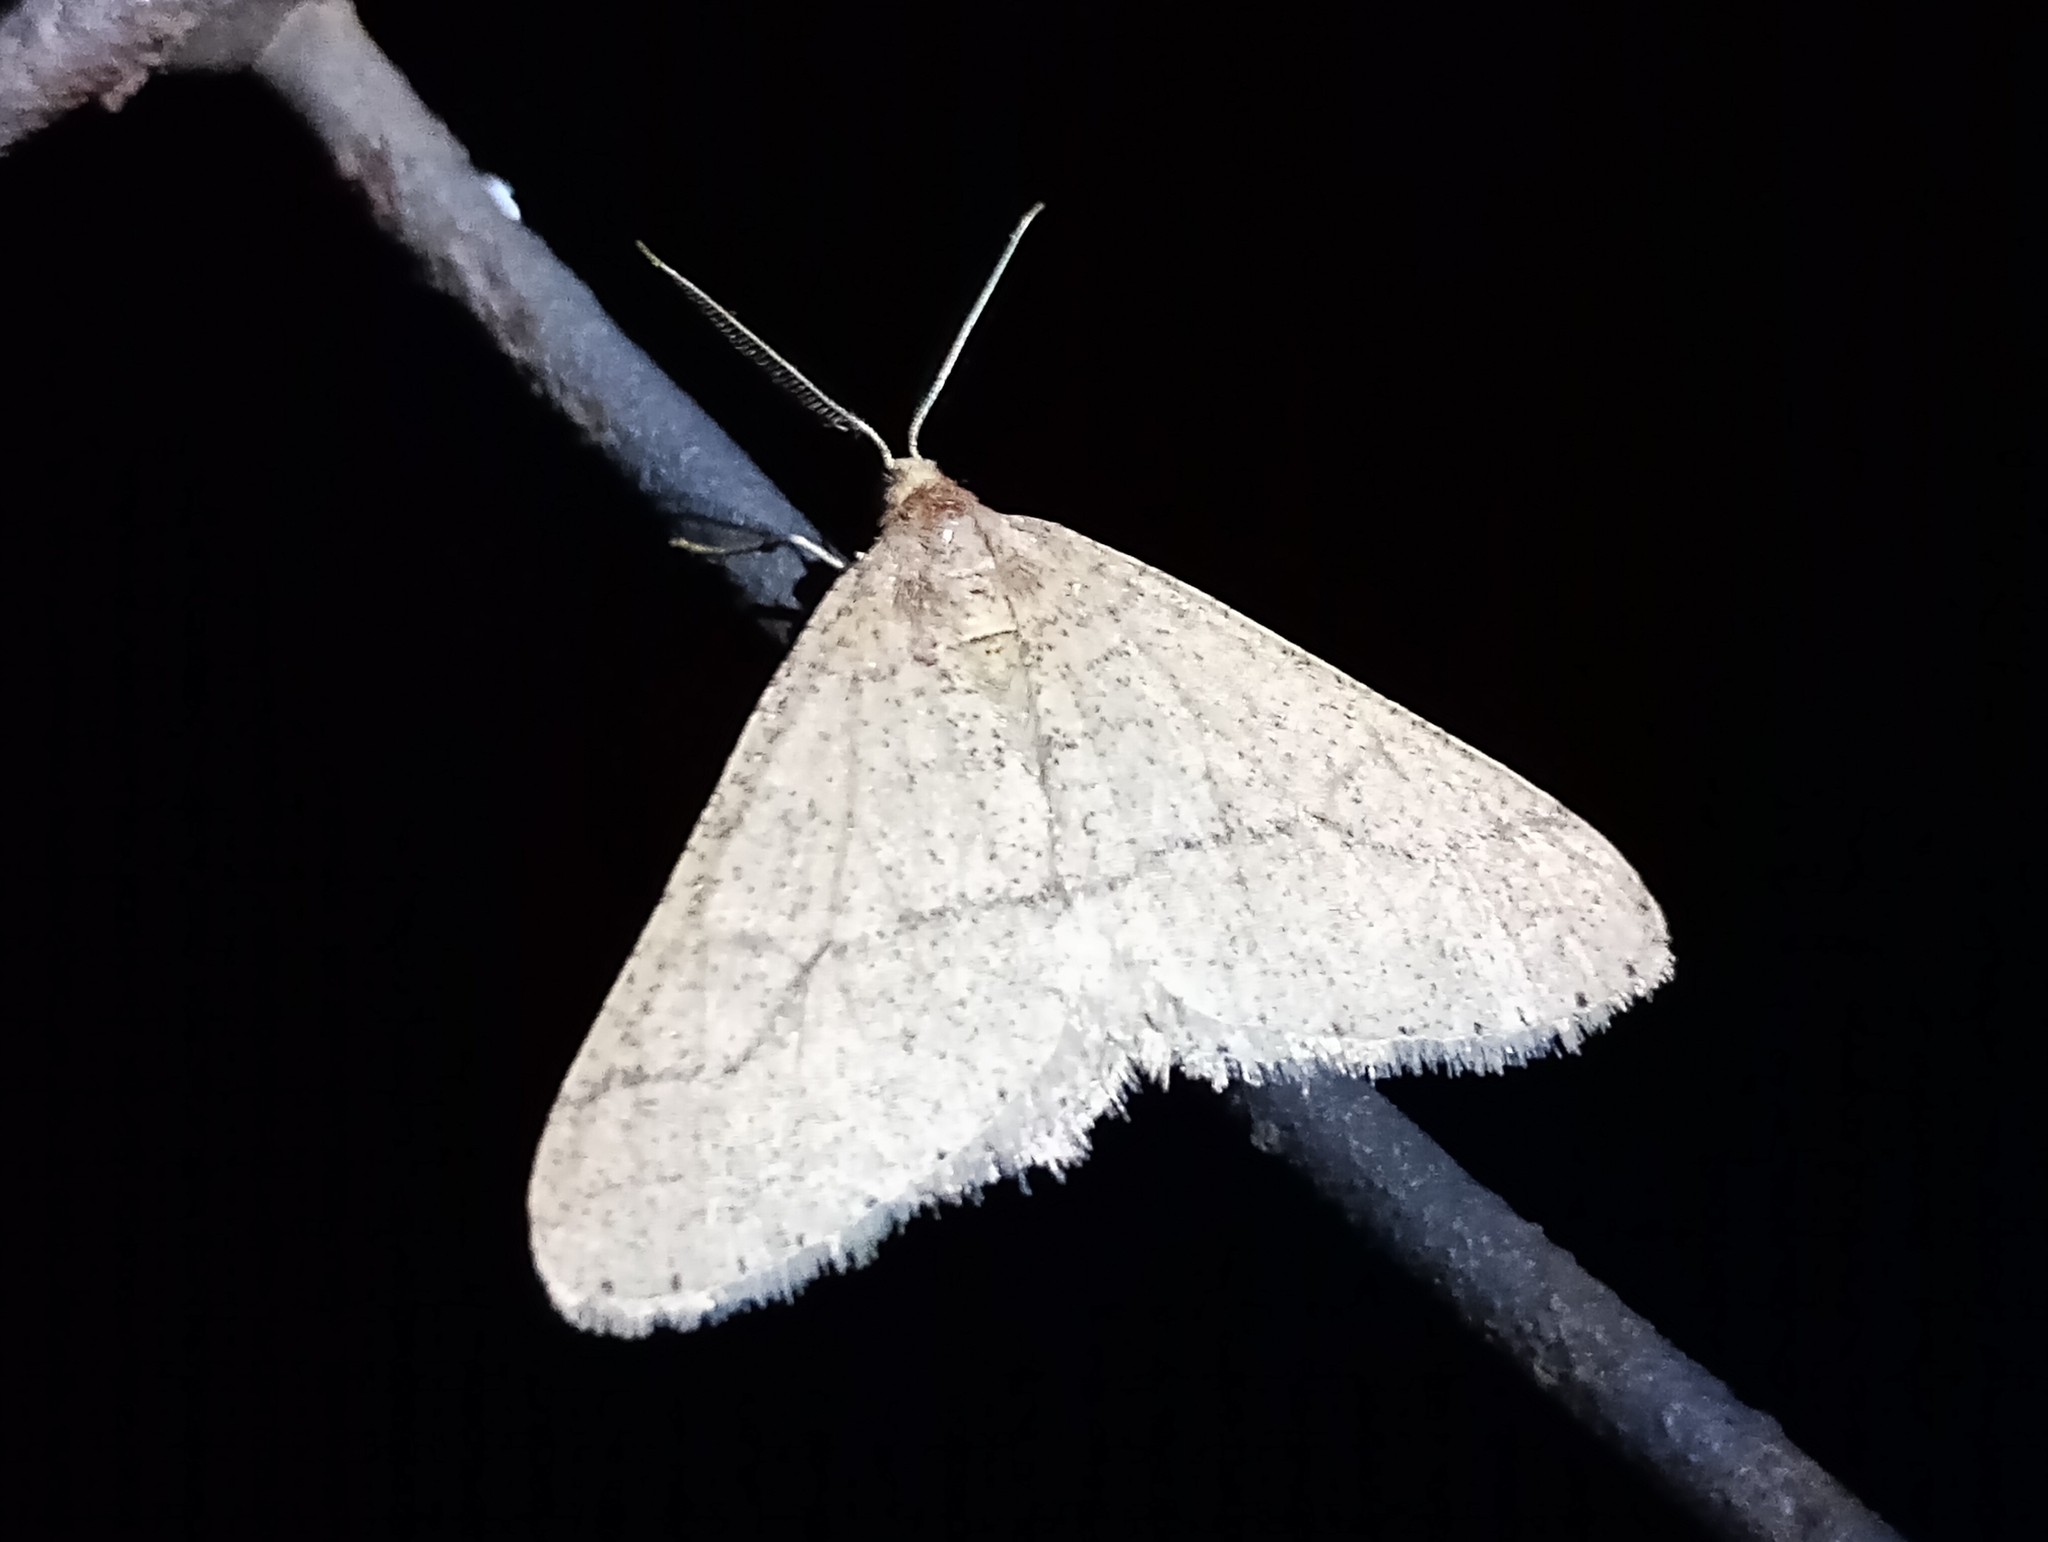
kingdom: Animalia
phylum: Arthropoda
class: Insecta
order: Lepidoptera
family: Geometridae
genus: Agriopis
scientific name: Agriopis marginaria
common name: Dotted border
